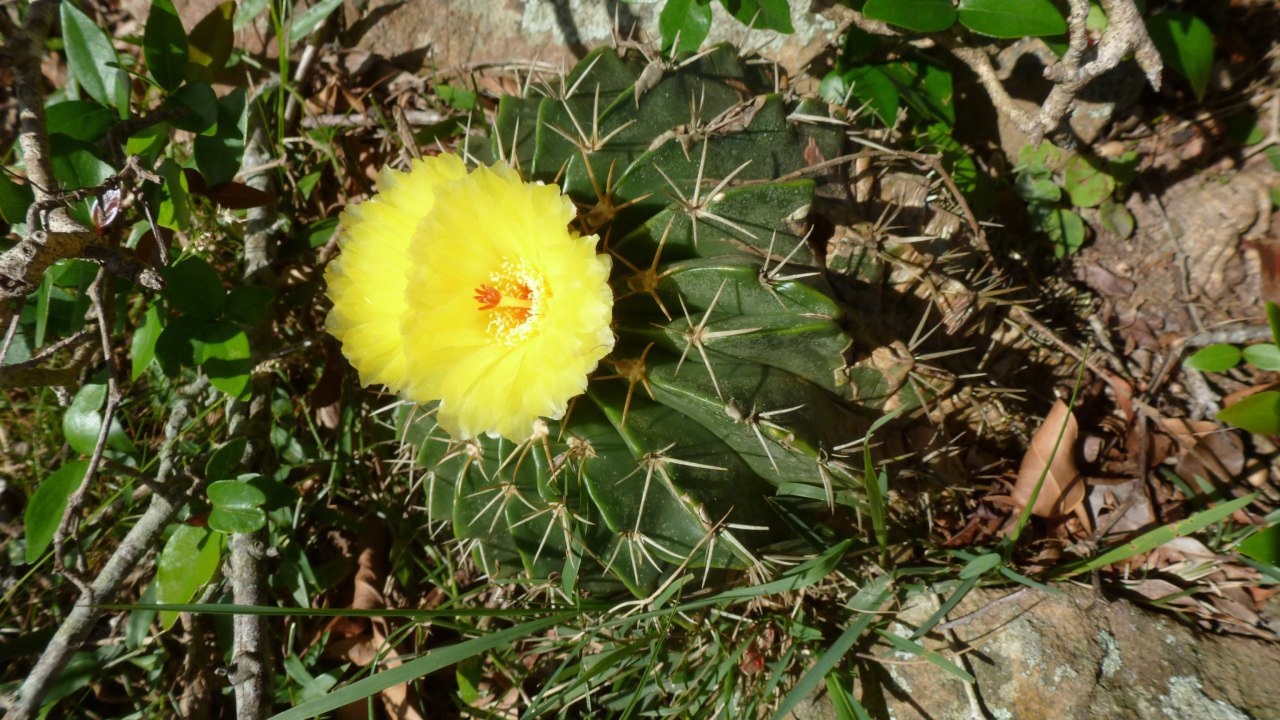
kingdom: Plantae
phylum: Tracheophyta
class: Magnoliopsida
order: Caryophyllales
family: Cactaceae
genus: Parodia
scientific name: Parodia erinacea
